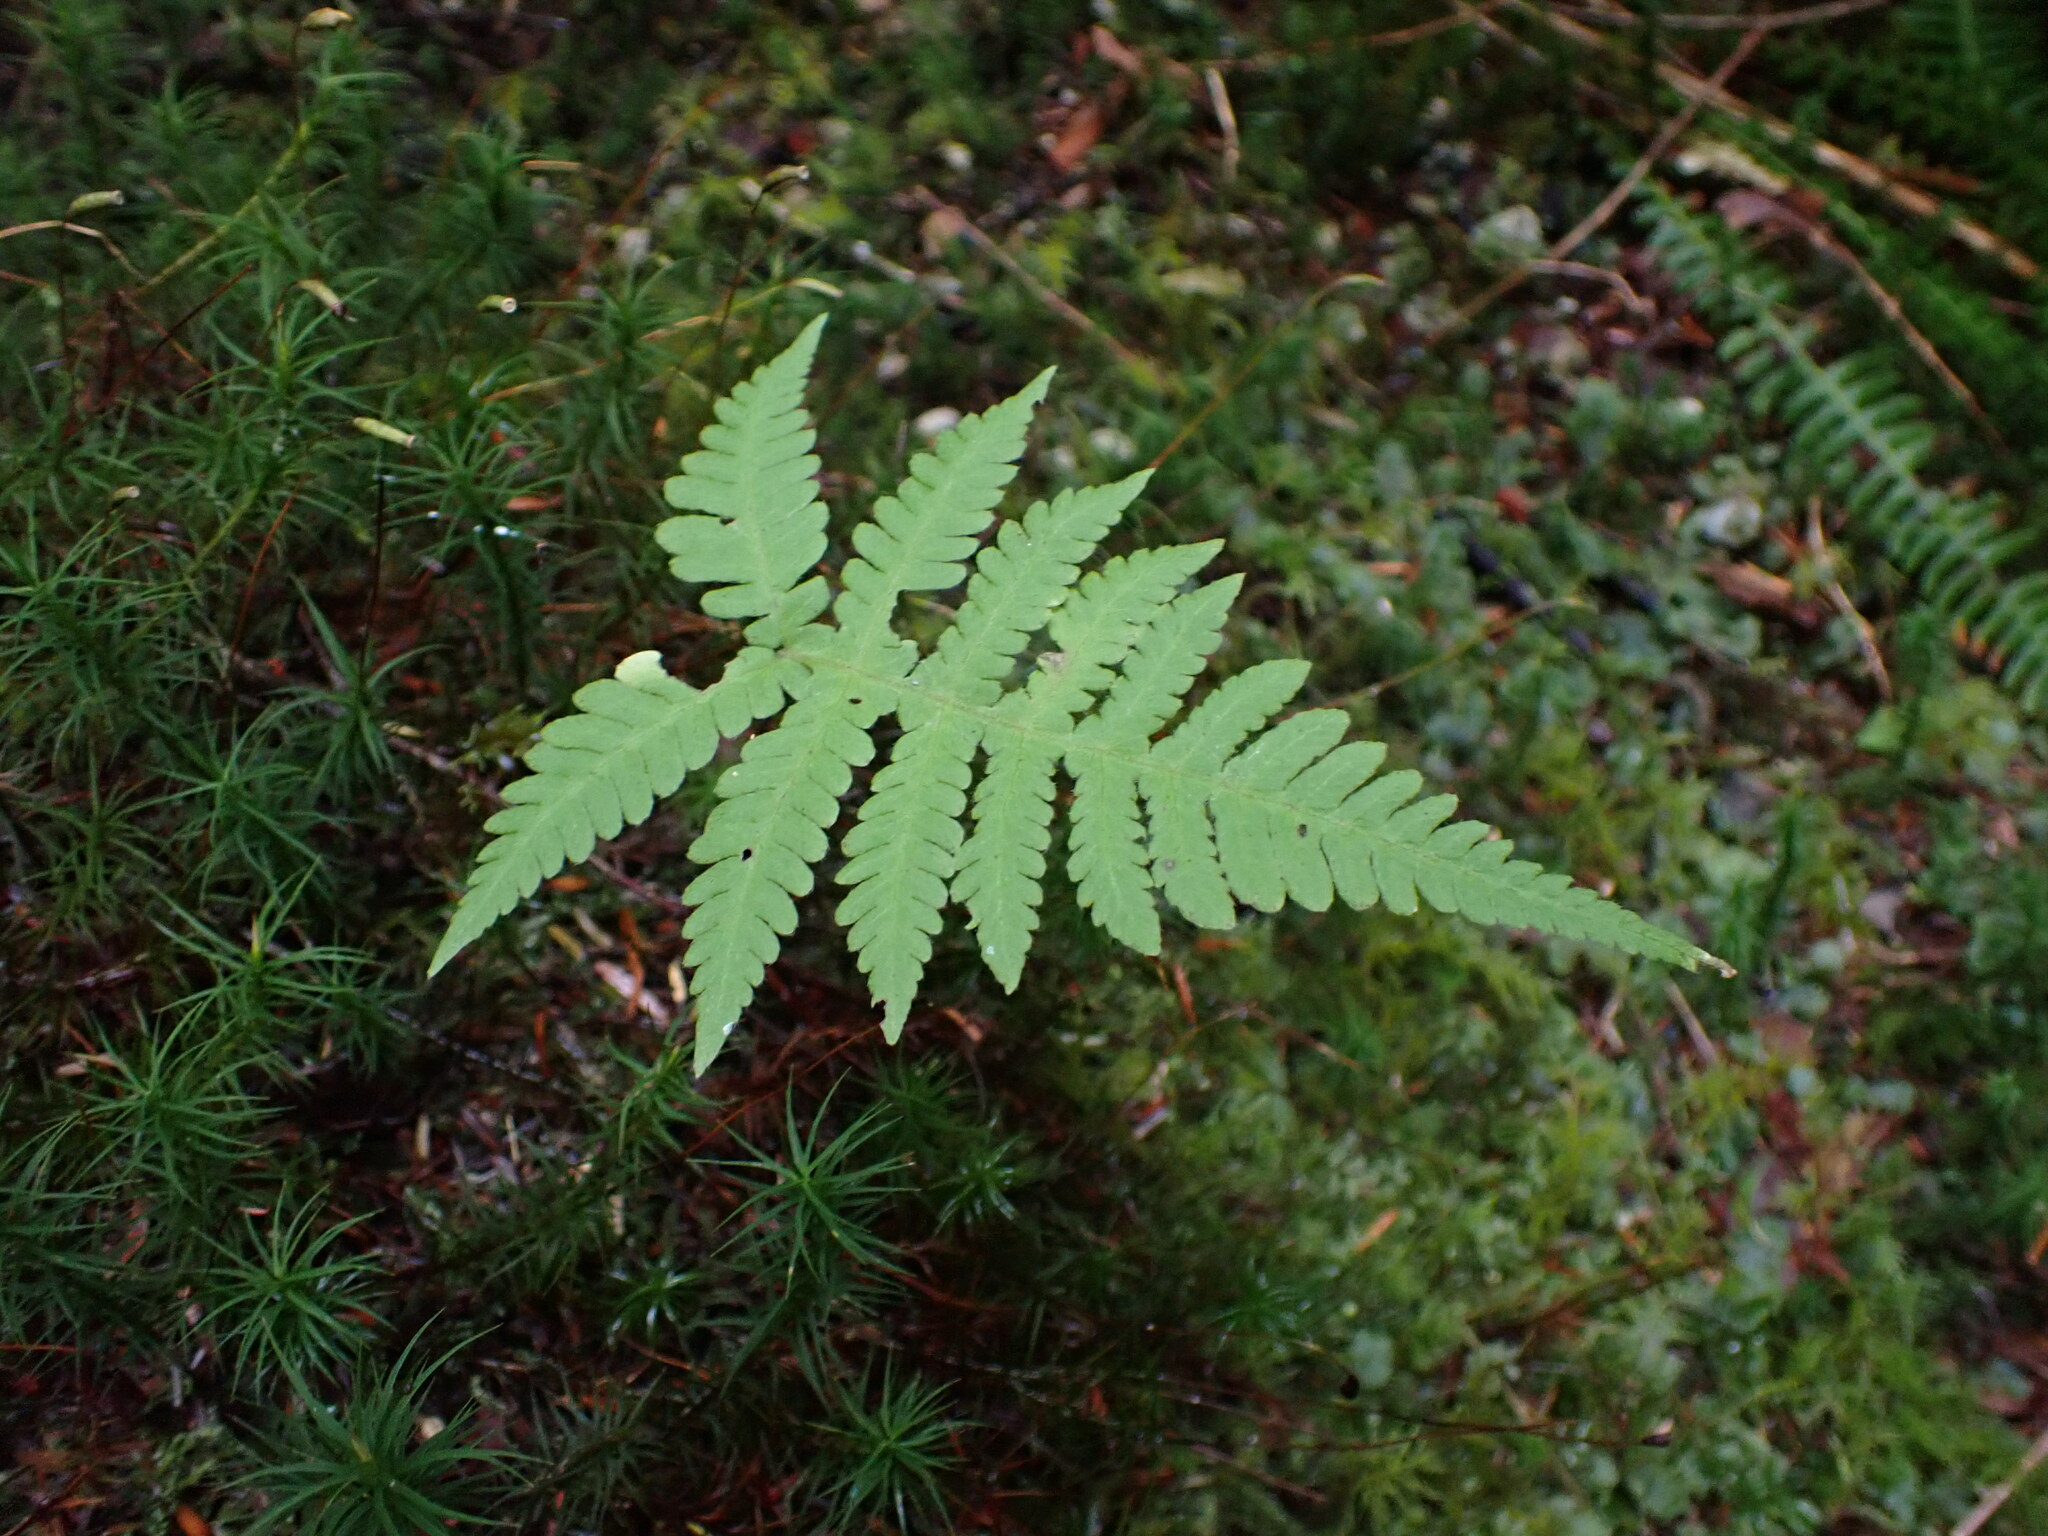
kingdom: Plantae
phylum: Tracheophyta
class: Polypodiopsida
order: Polypodiales
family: Thelypteridaceae
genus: Phegopteris
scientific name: Phegopteris connectilis
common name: Beech fern
